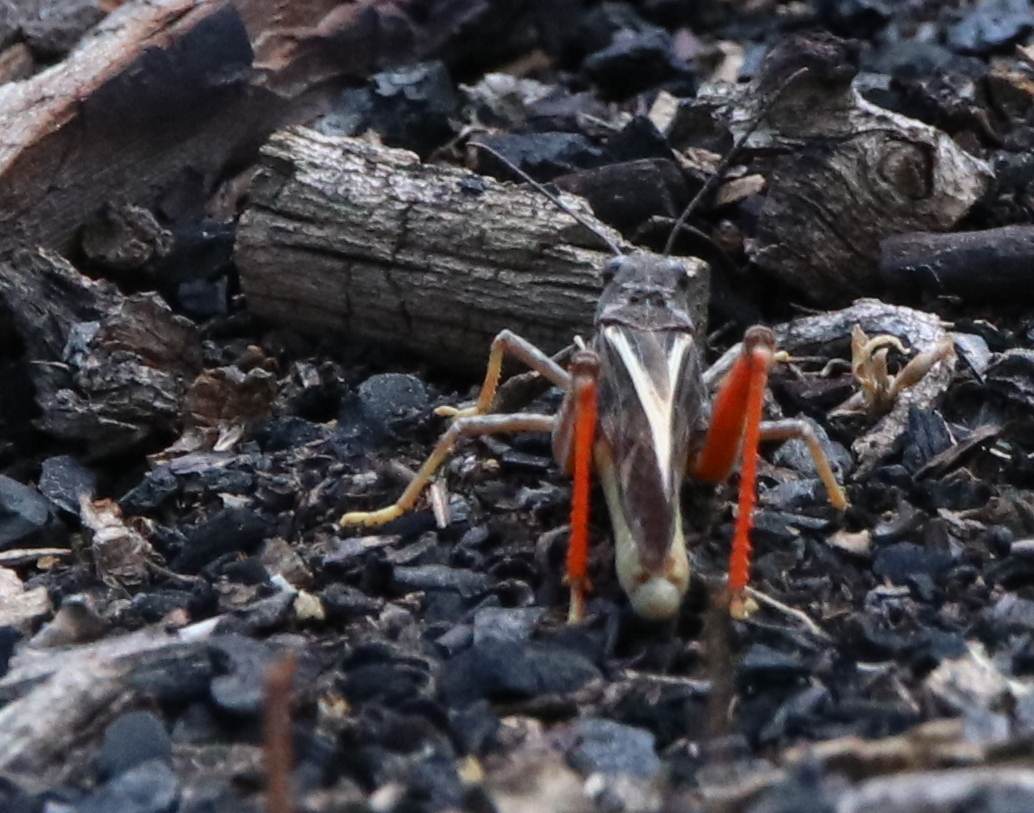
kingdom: Animalia
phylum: Arthropoda
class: Insecta
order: Orthoptera
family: Acrididae
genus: Cratypedes
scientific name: Cratypedes neglectus
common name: Pronotal range grasshopper
